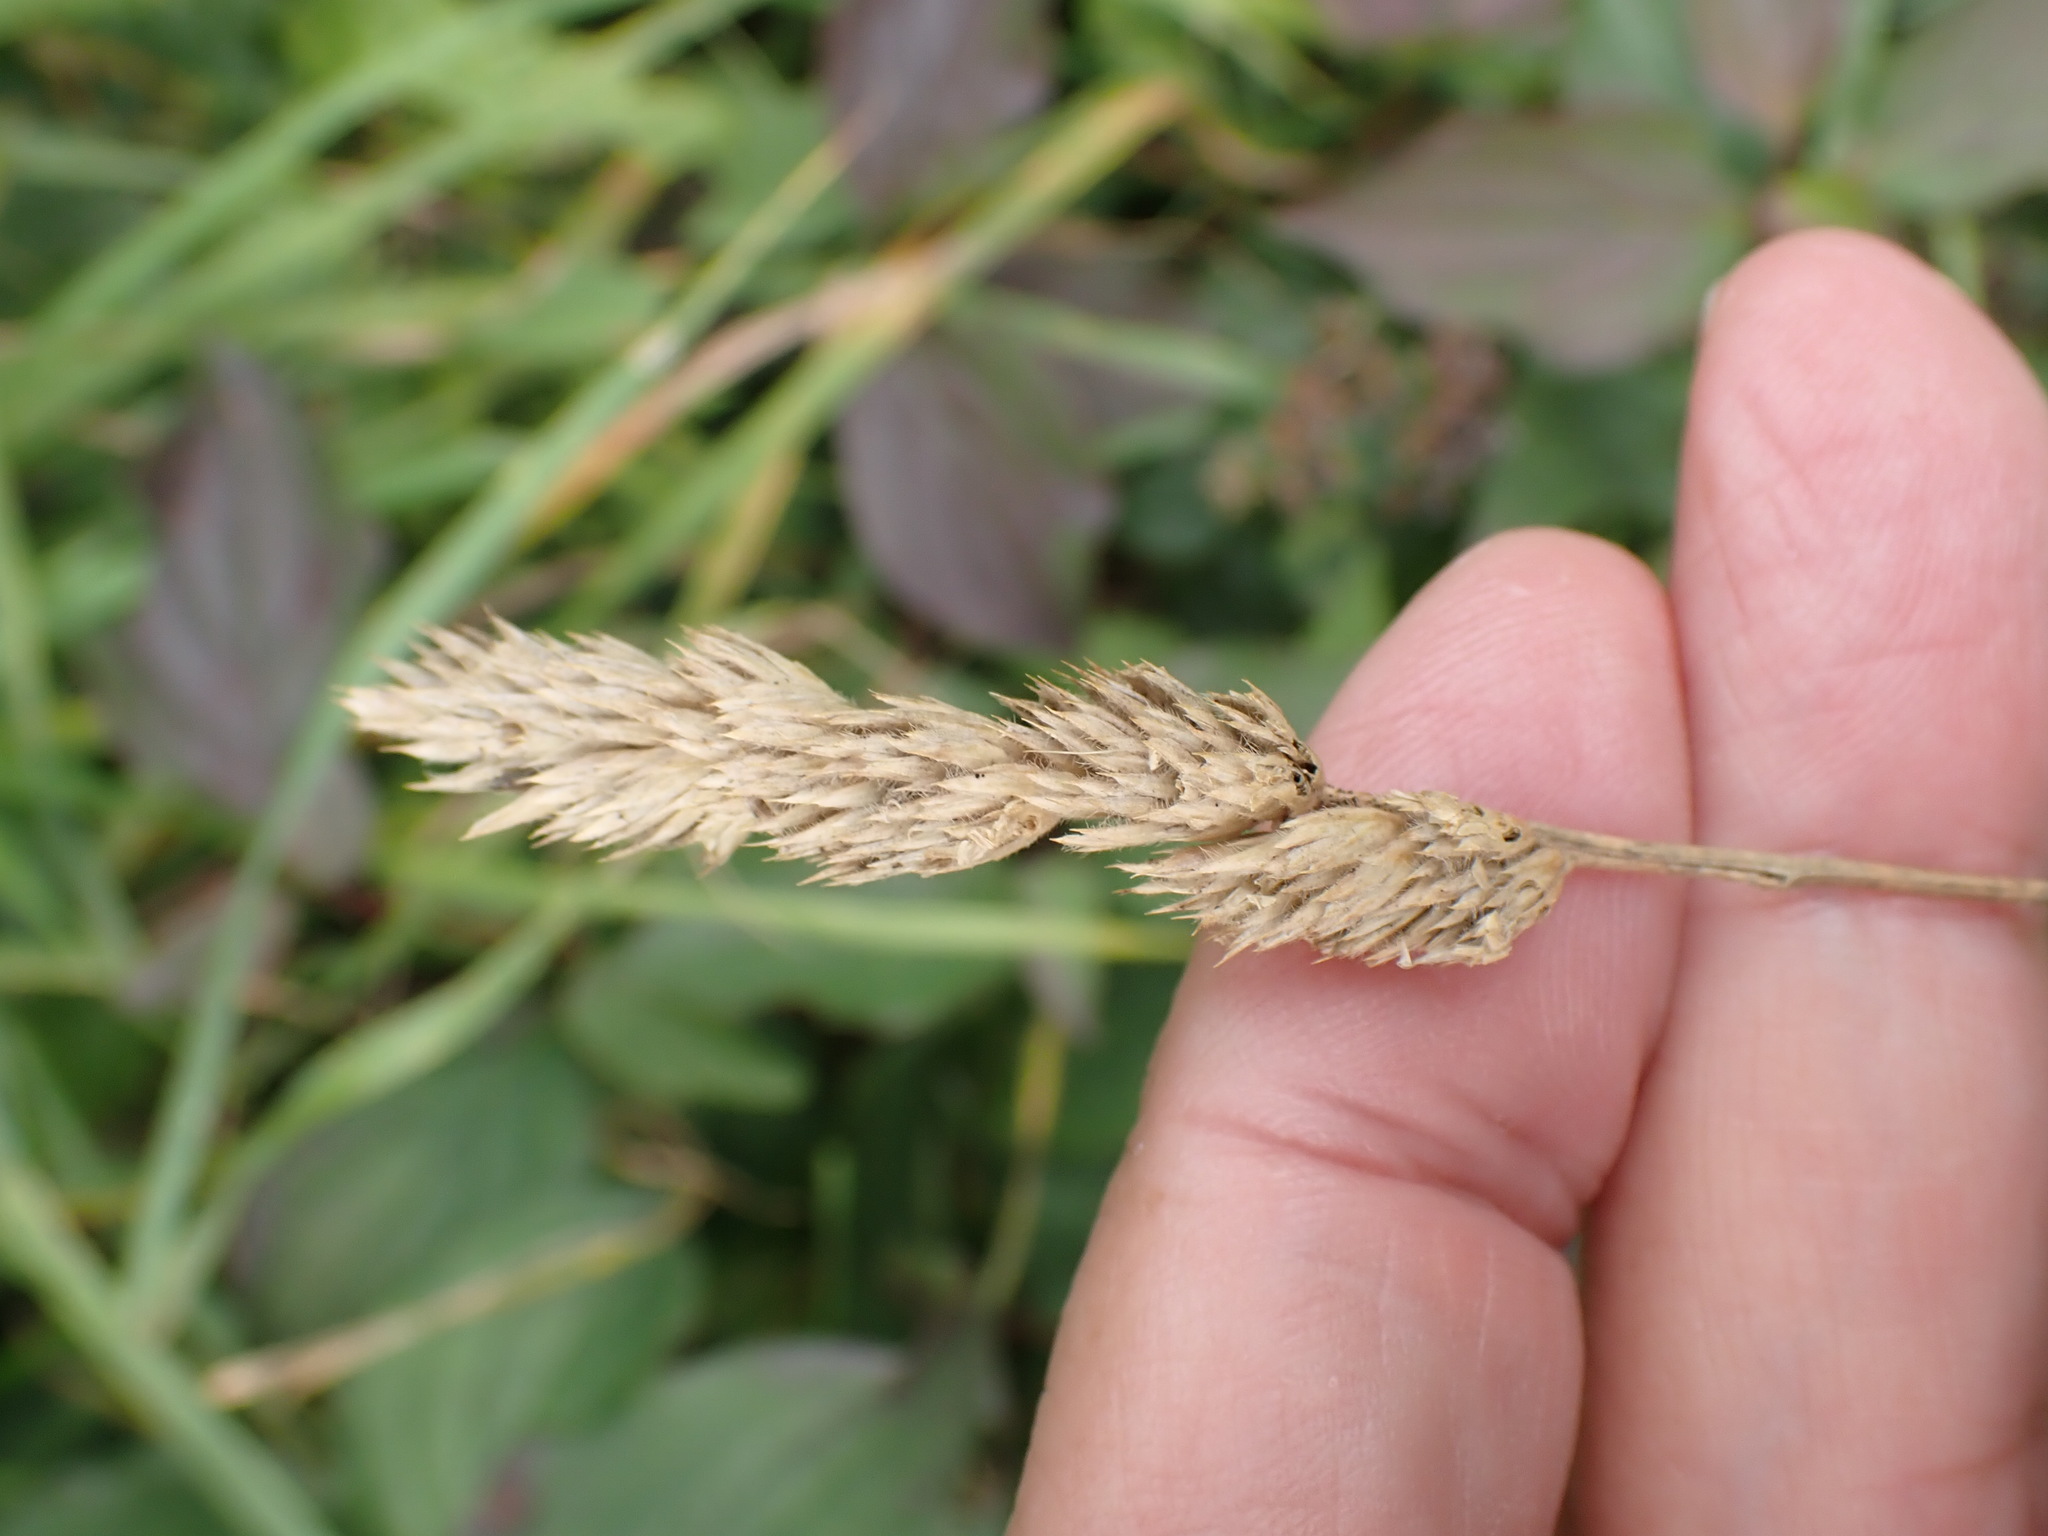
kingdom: Plantae
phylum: Tracheophyta
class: Liliopsida
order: Poales
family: Poaceae
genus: Dactylis
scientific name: Dactylis glomerata
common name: Orchardgrass
